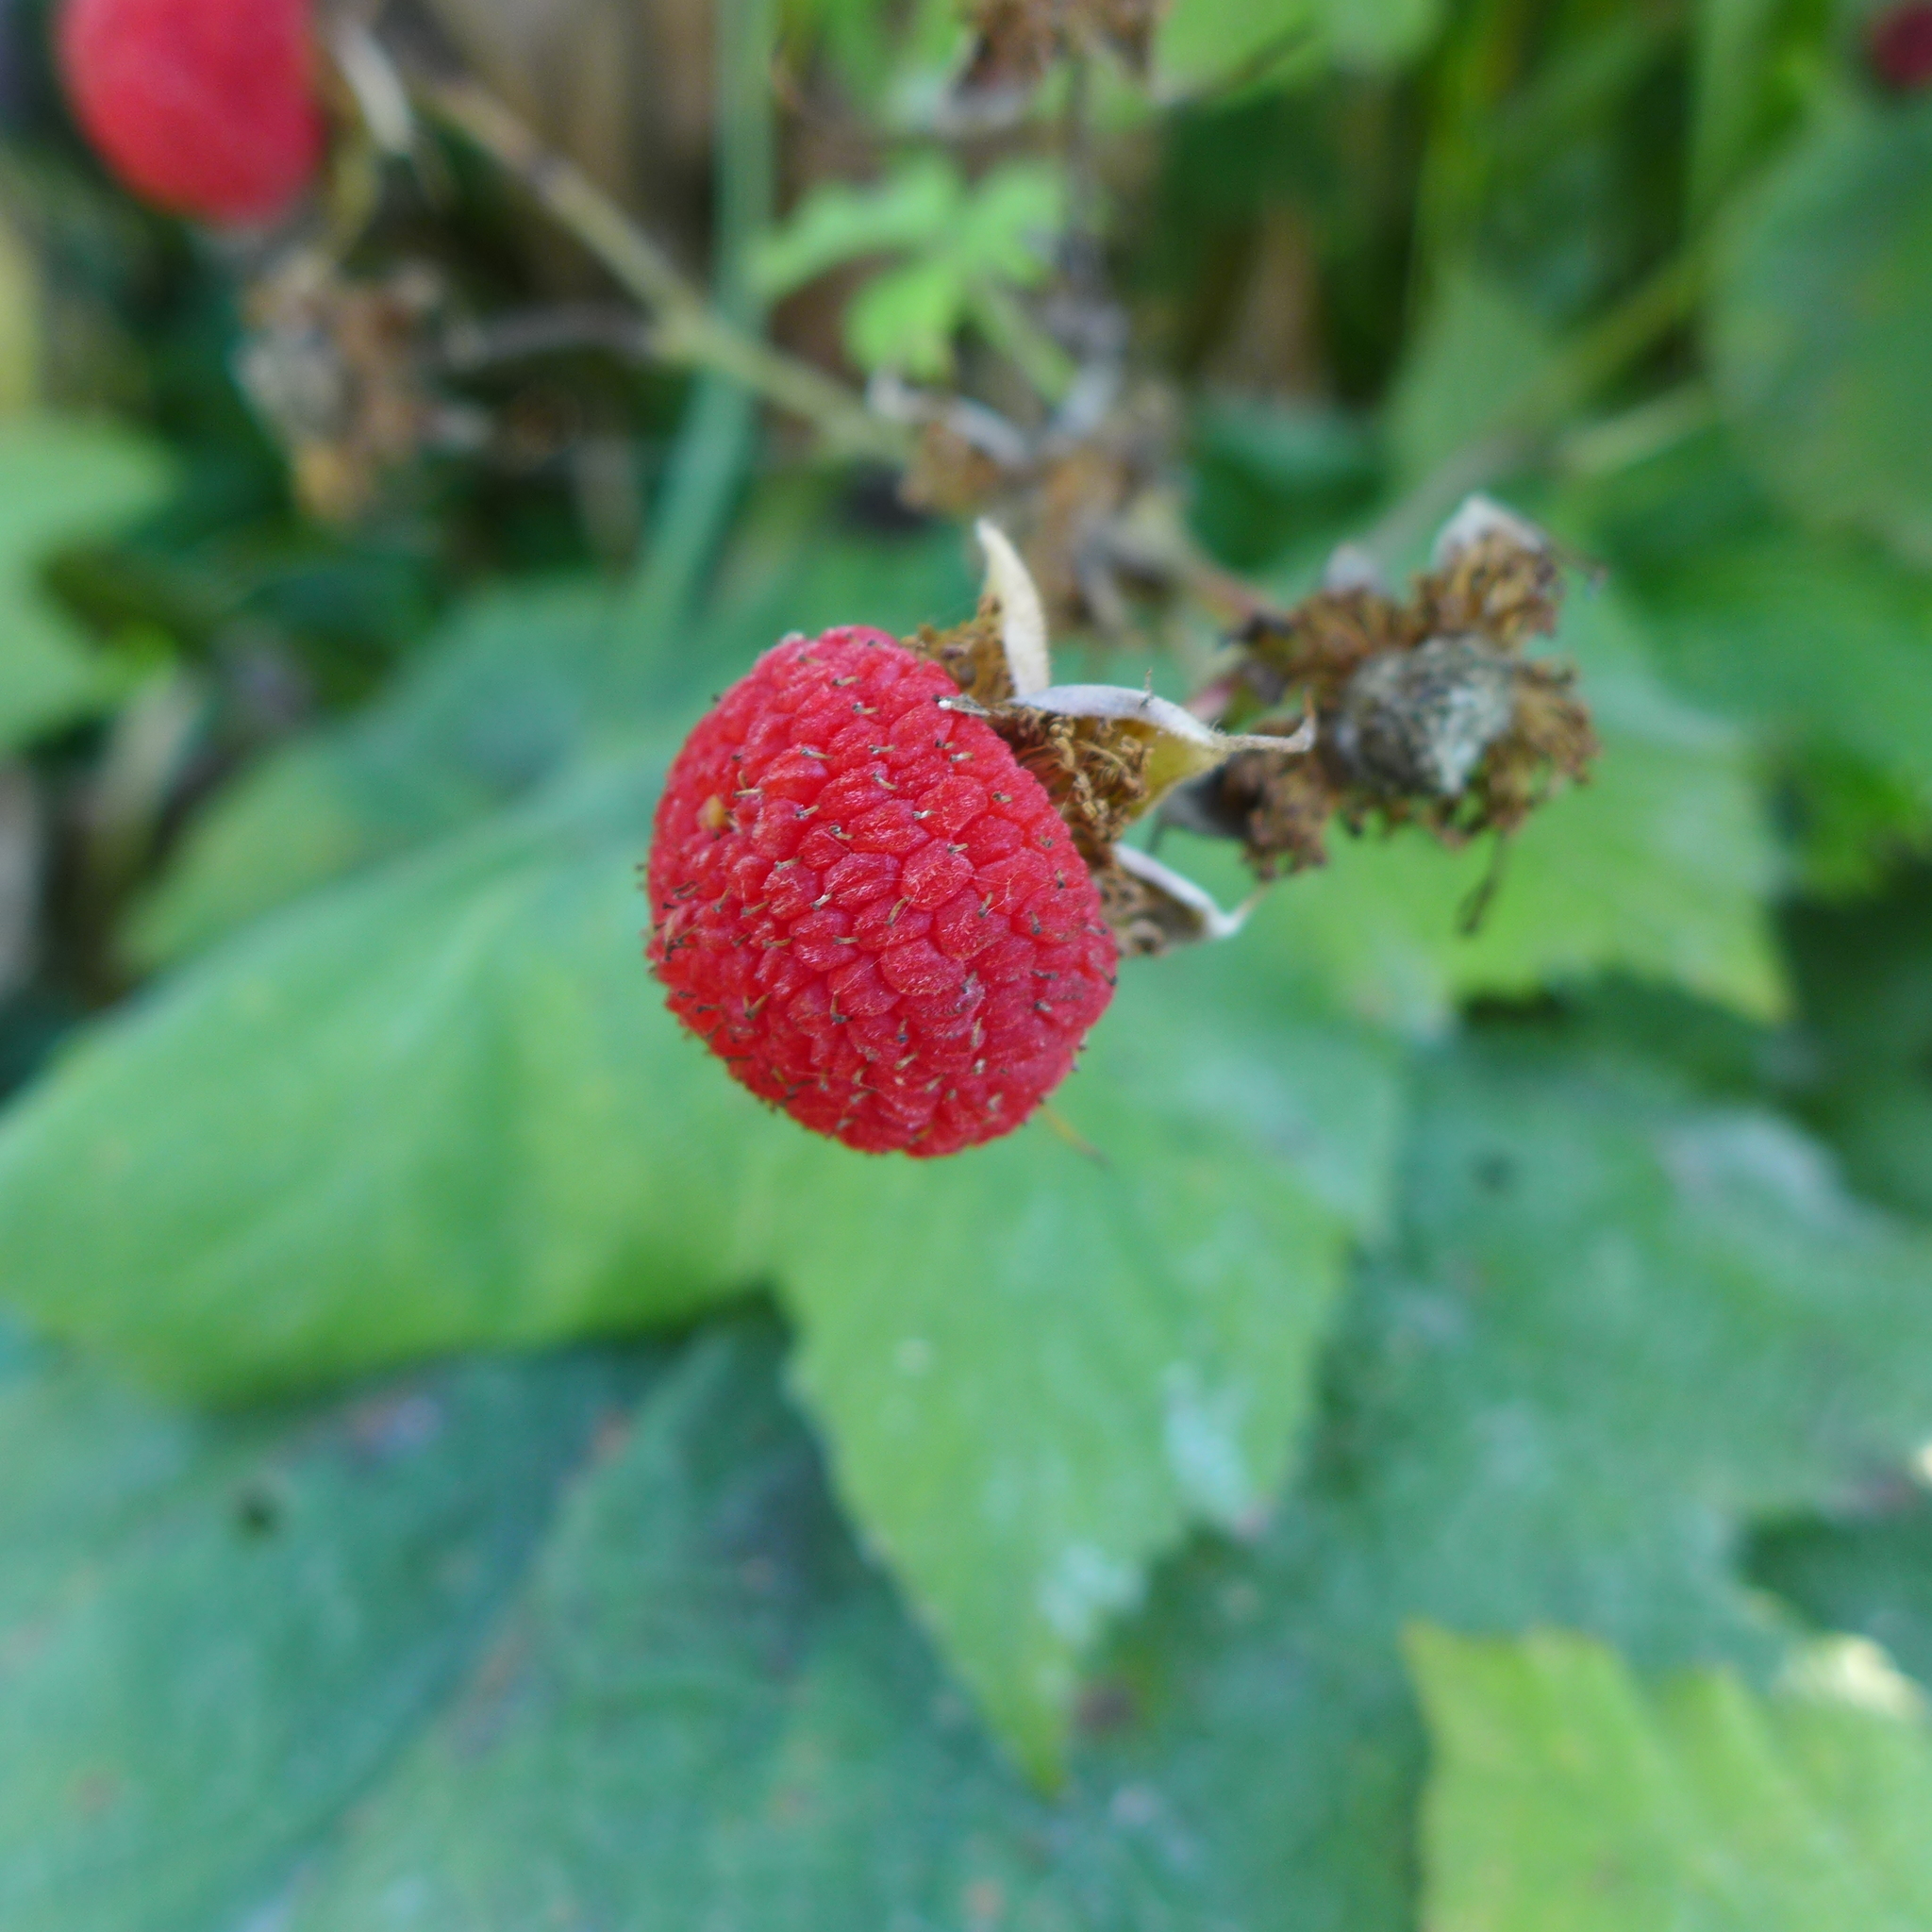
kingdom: Plantae
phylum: Tracheophyta
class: Magnoliopsida
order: Rosales
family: Rosaceae
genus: Rubus
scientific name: Rubus parviflorus
